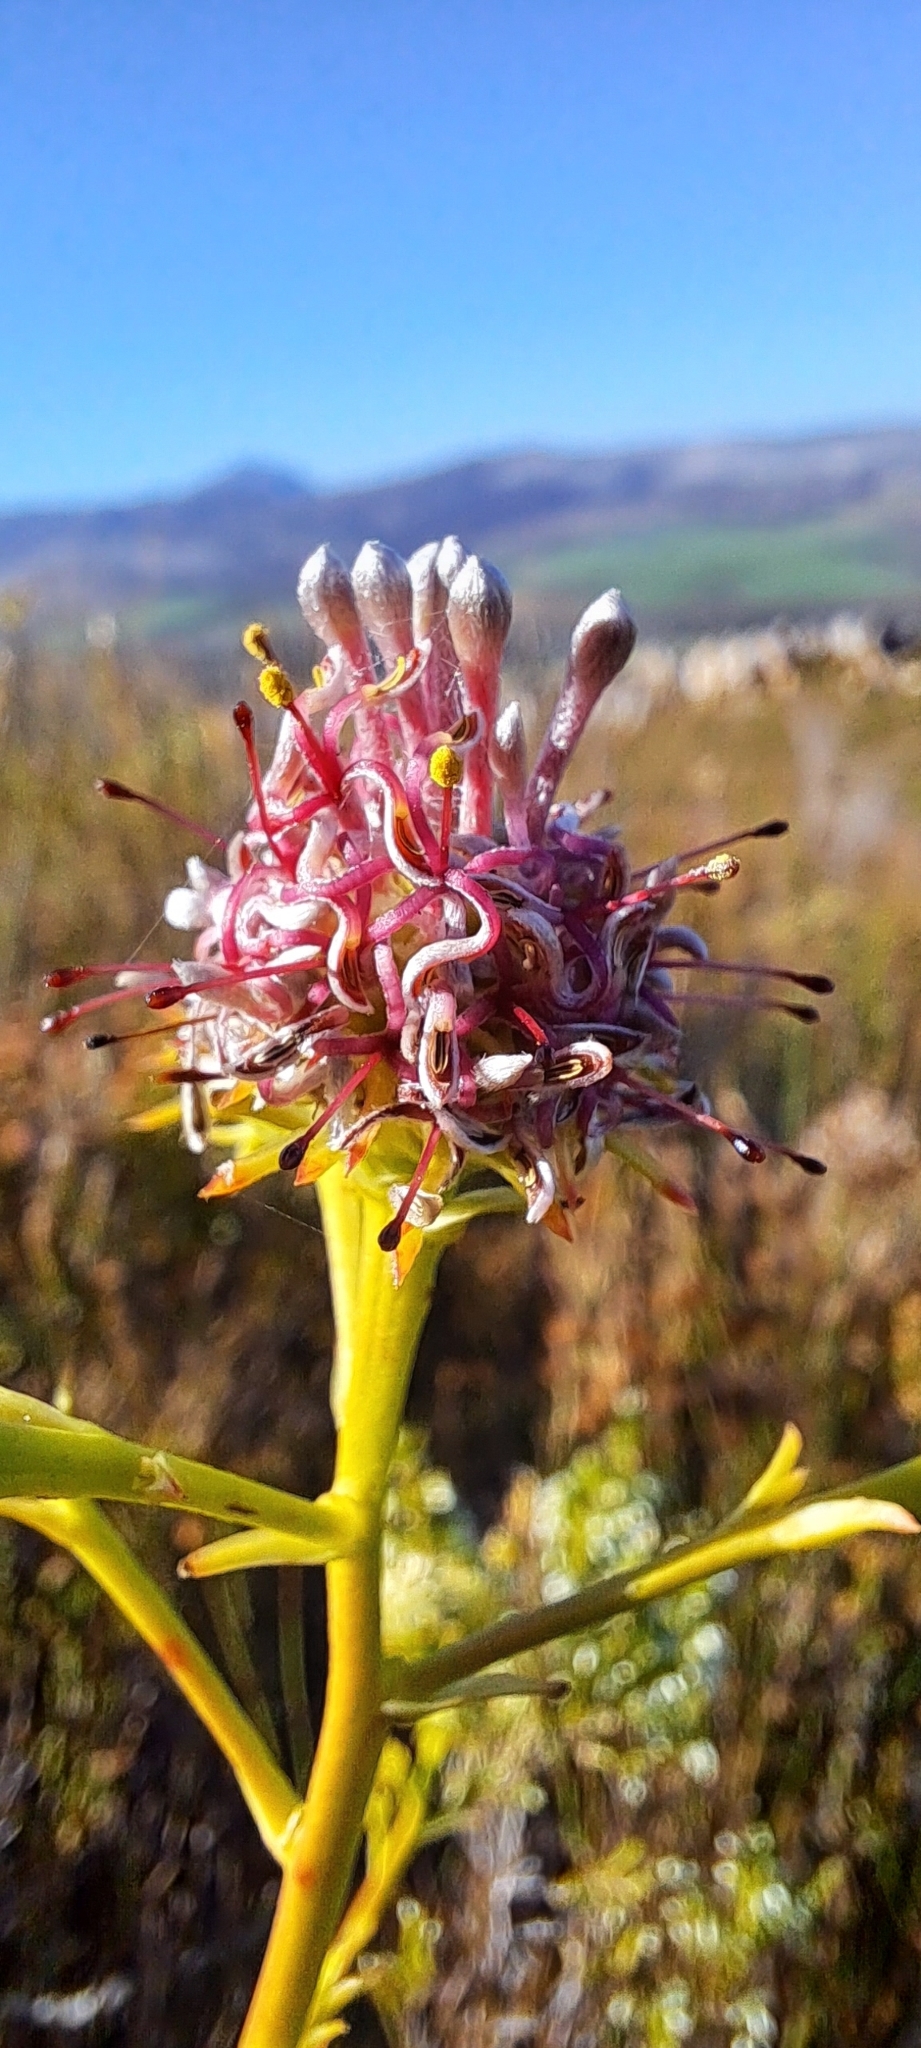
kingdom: Plantae
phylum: Tracheophyta
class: Magnoliopsida
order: Proteales
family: Proteaceae
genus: Serruria
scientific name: Serruria elongata
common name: Long-stalk spiderhead
